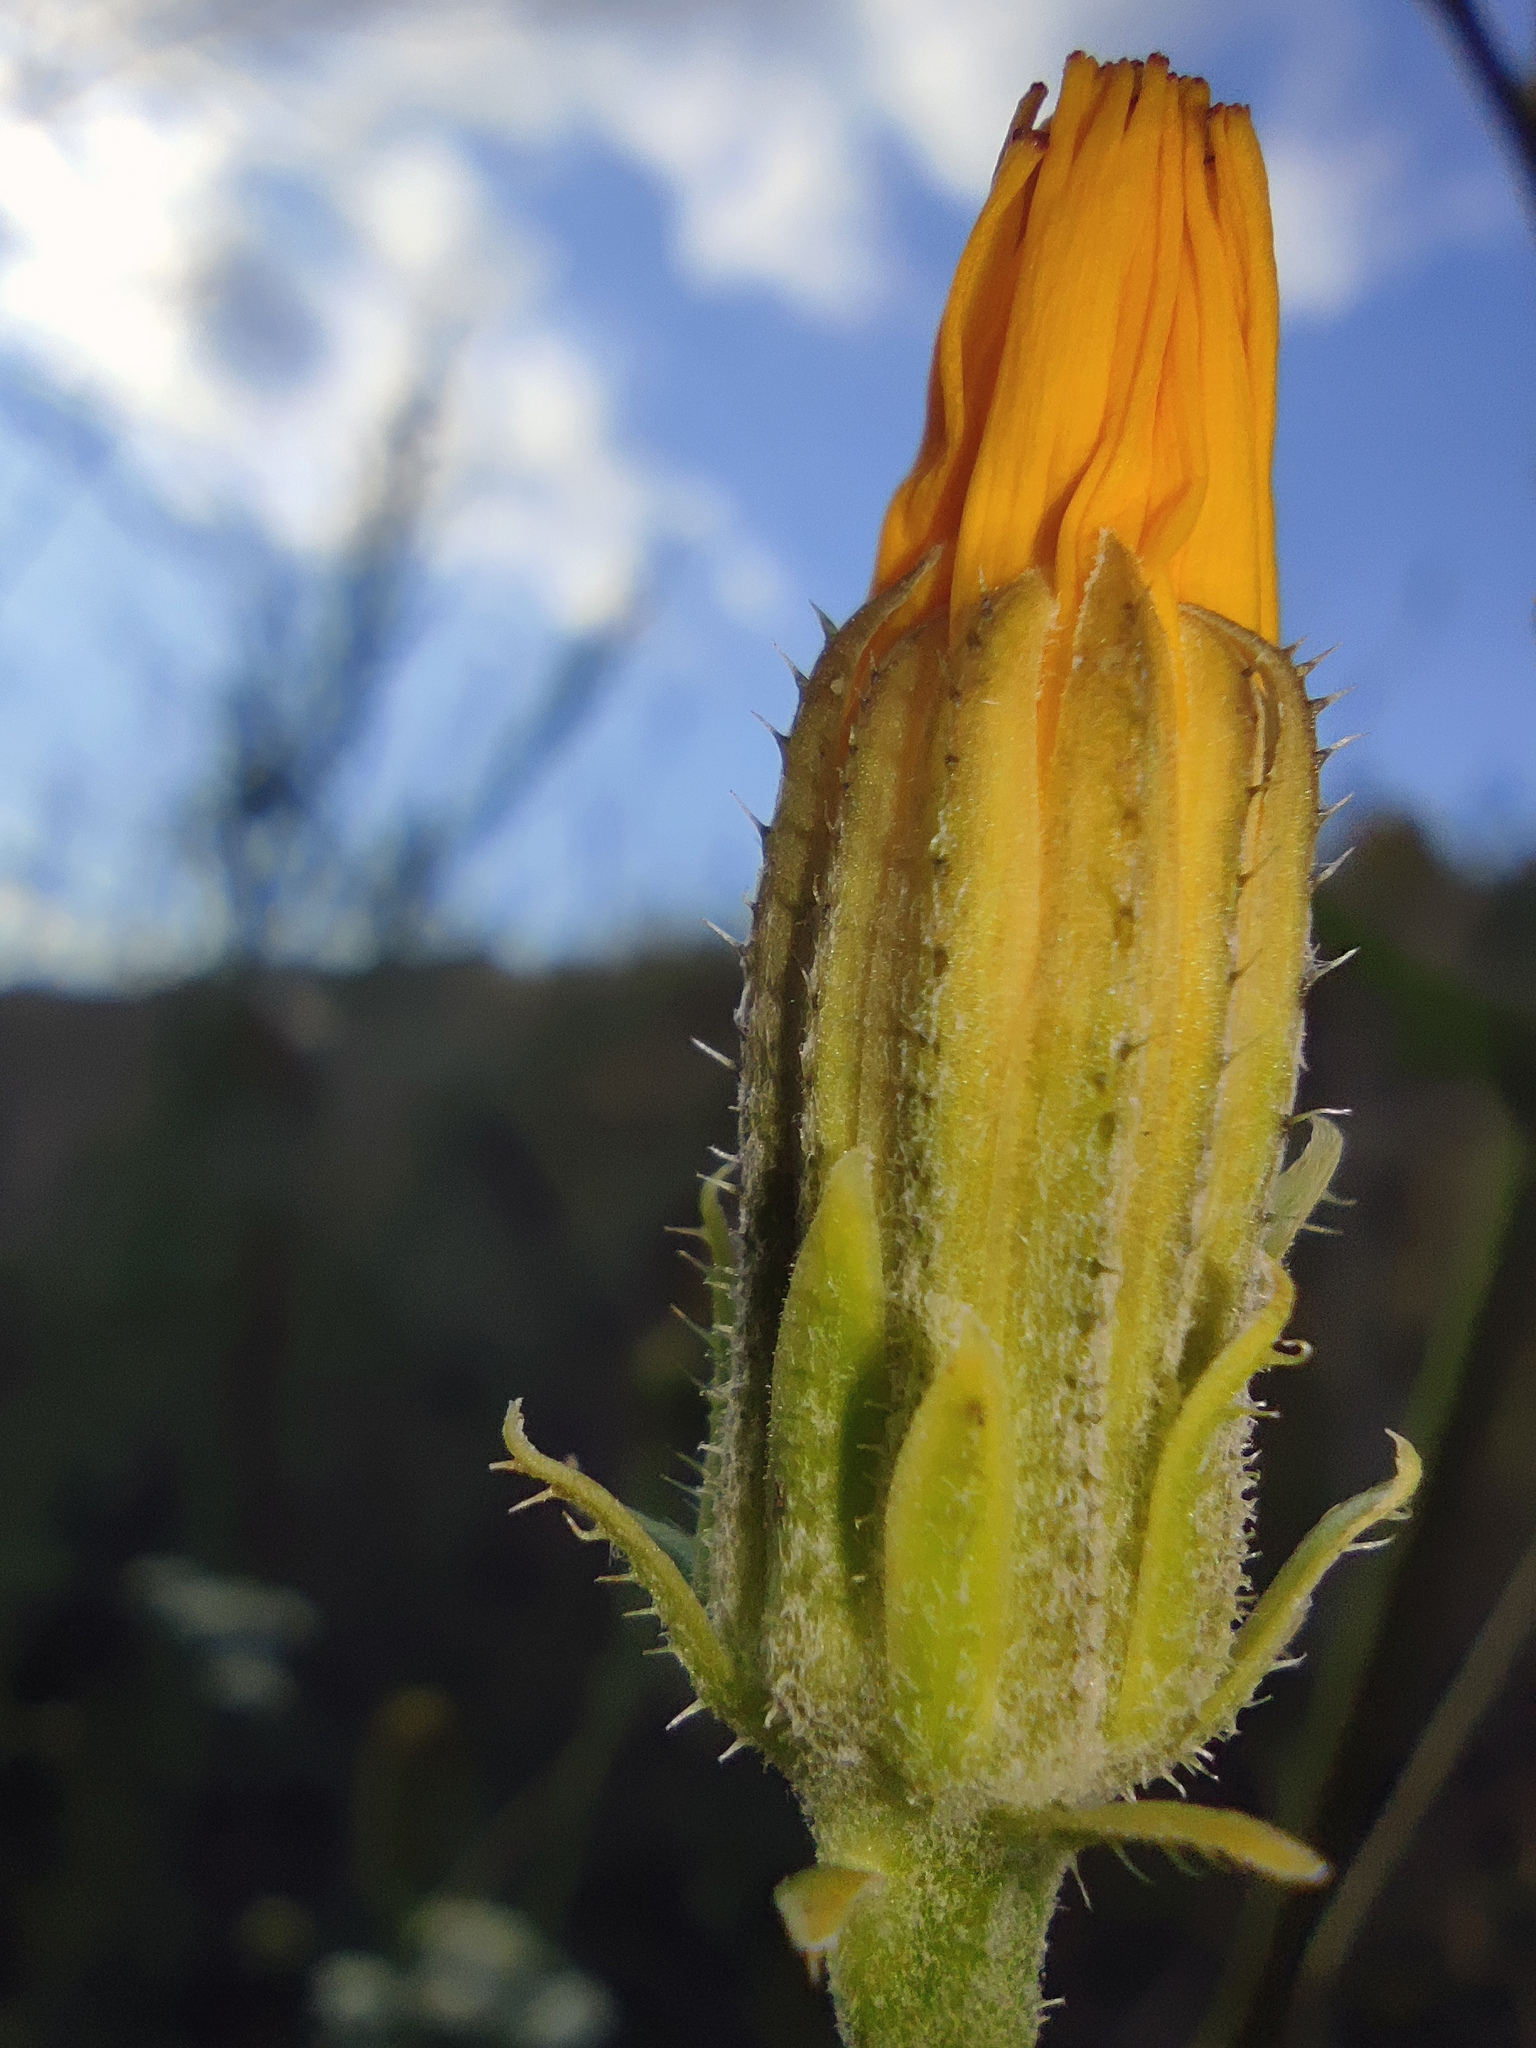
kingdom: Plantae
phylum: Tracheophyta
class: Magnoliopsida
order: Asterales
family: Asteraceae
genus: Picris
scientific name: Picris hieracioides
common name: Hawkweed oxtongue
